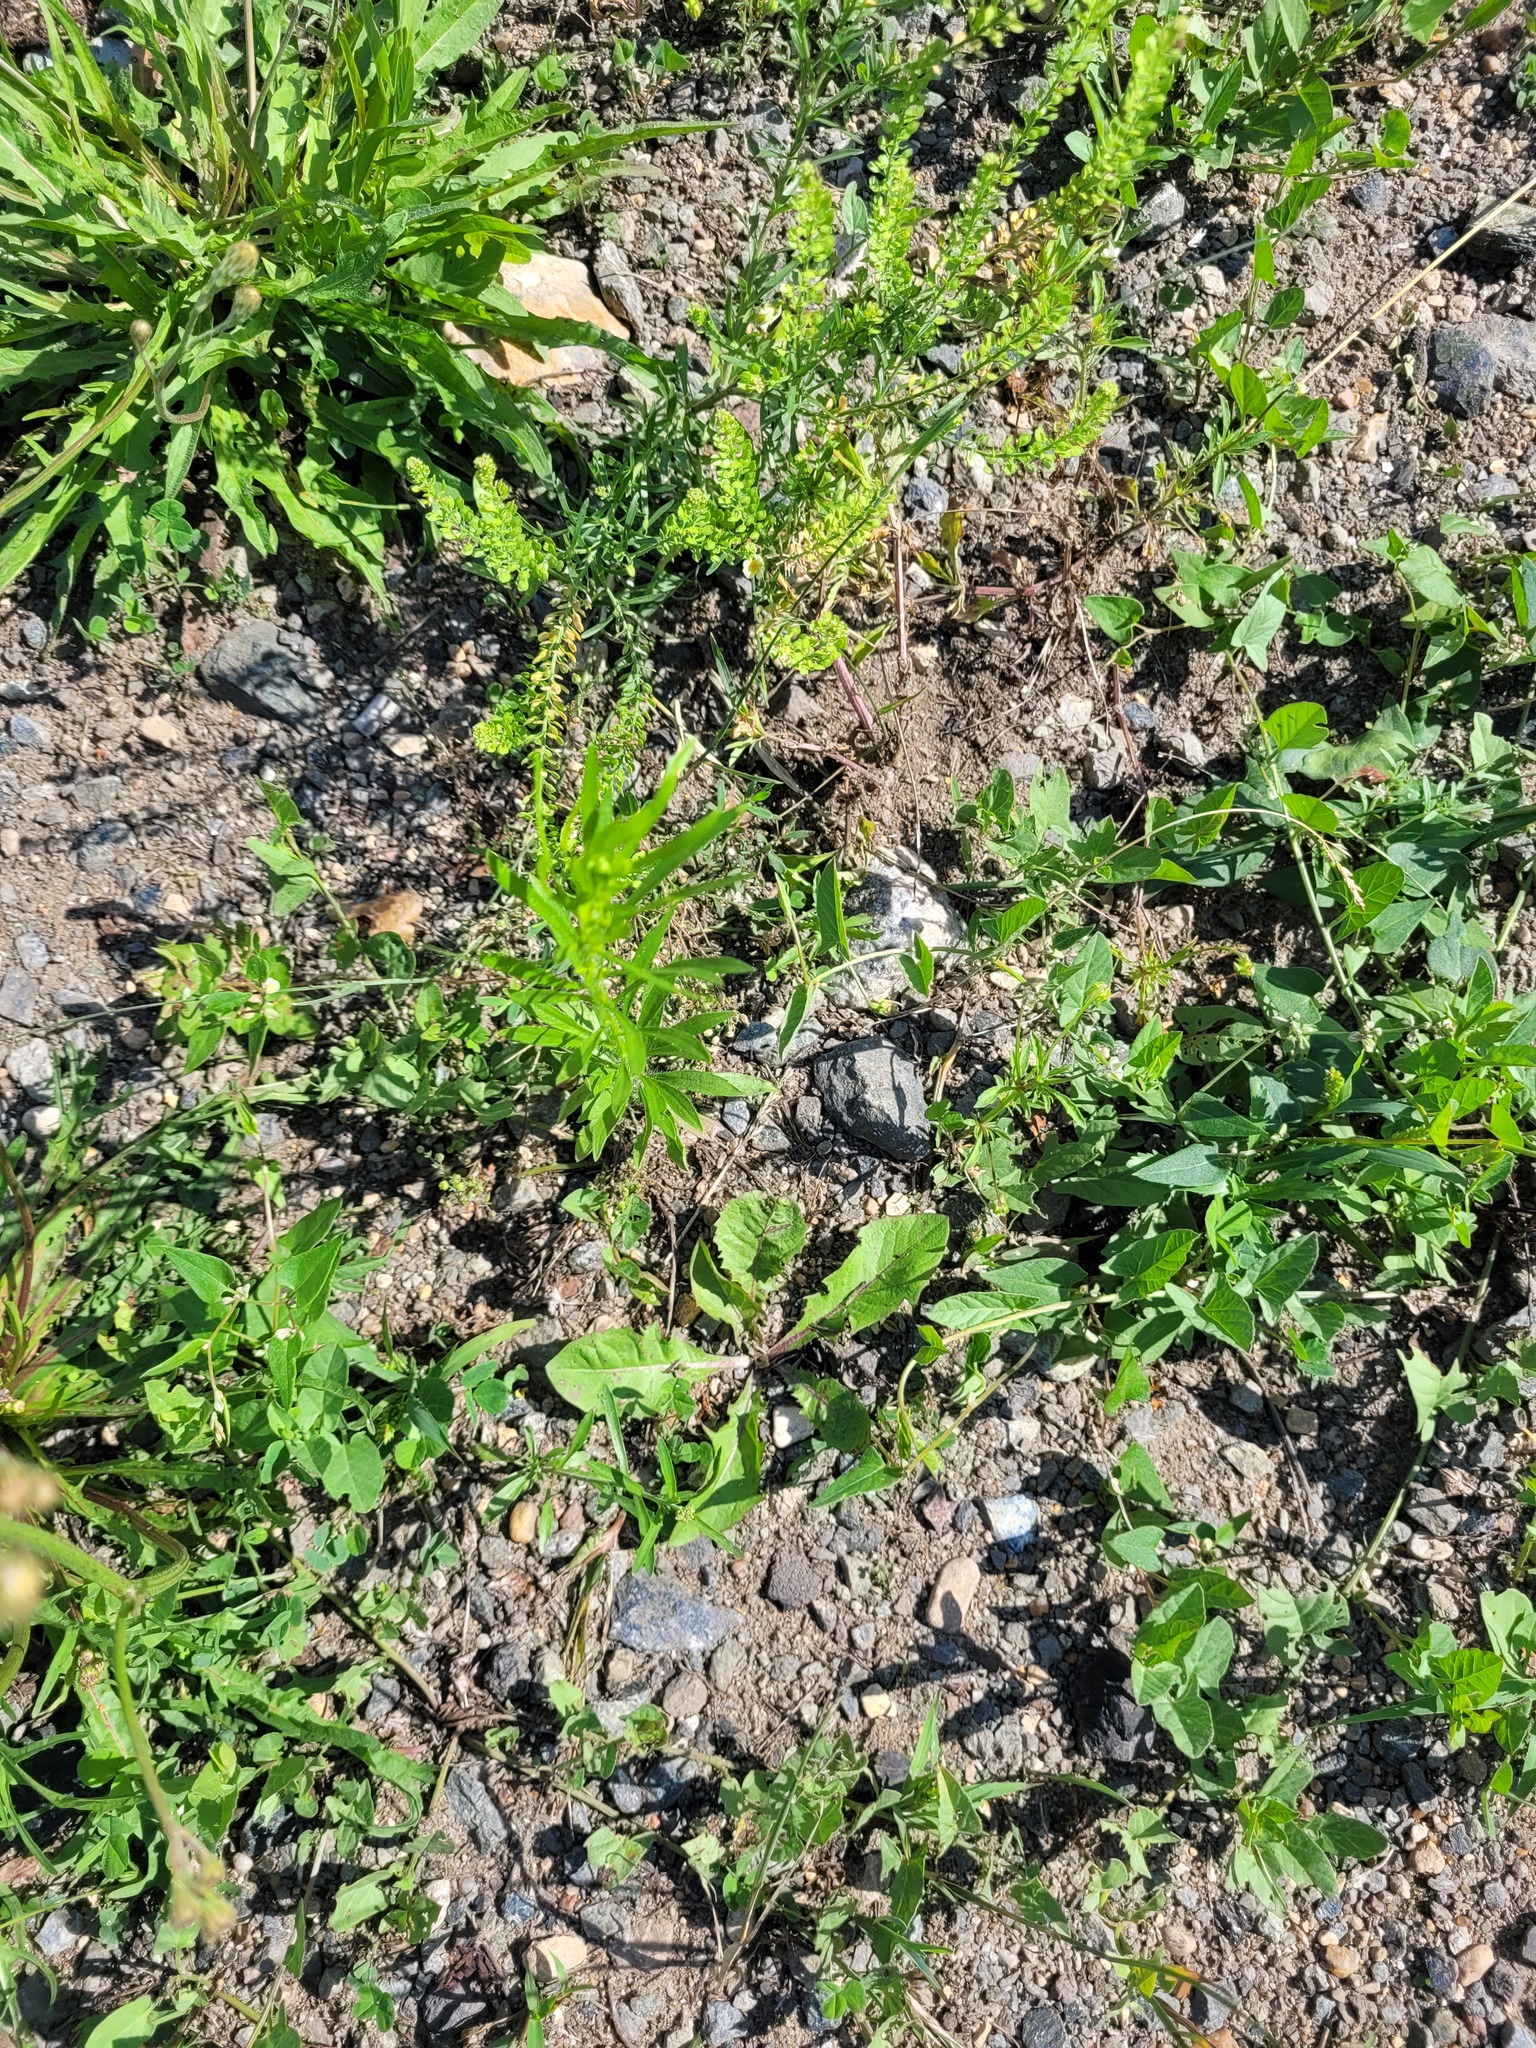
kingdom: Plantae
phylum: Tracheophyta
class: Magnoliopsida
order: Asterales
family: Asteraceae
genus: Erigeron
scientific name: Erigeron canadensis
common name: Canadian fleabane
